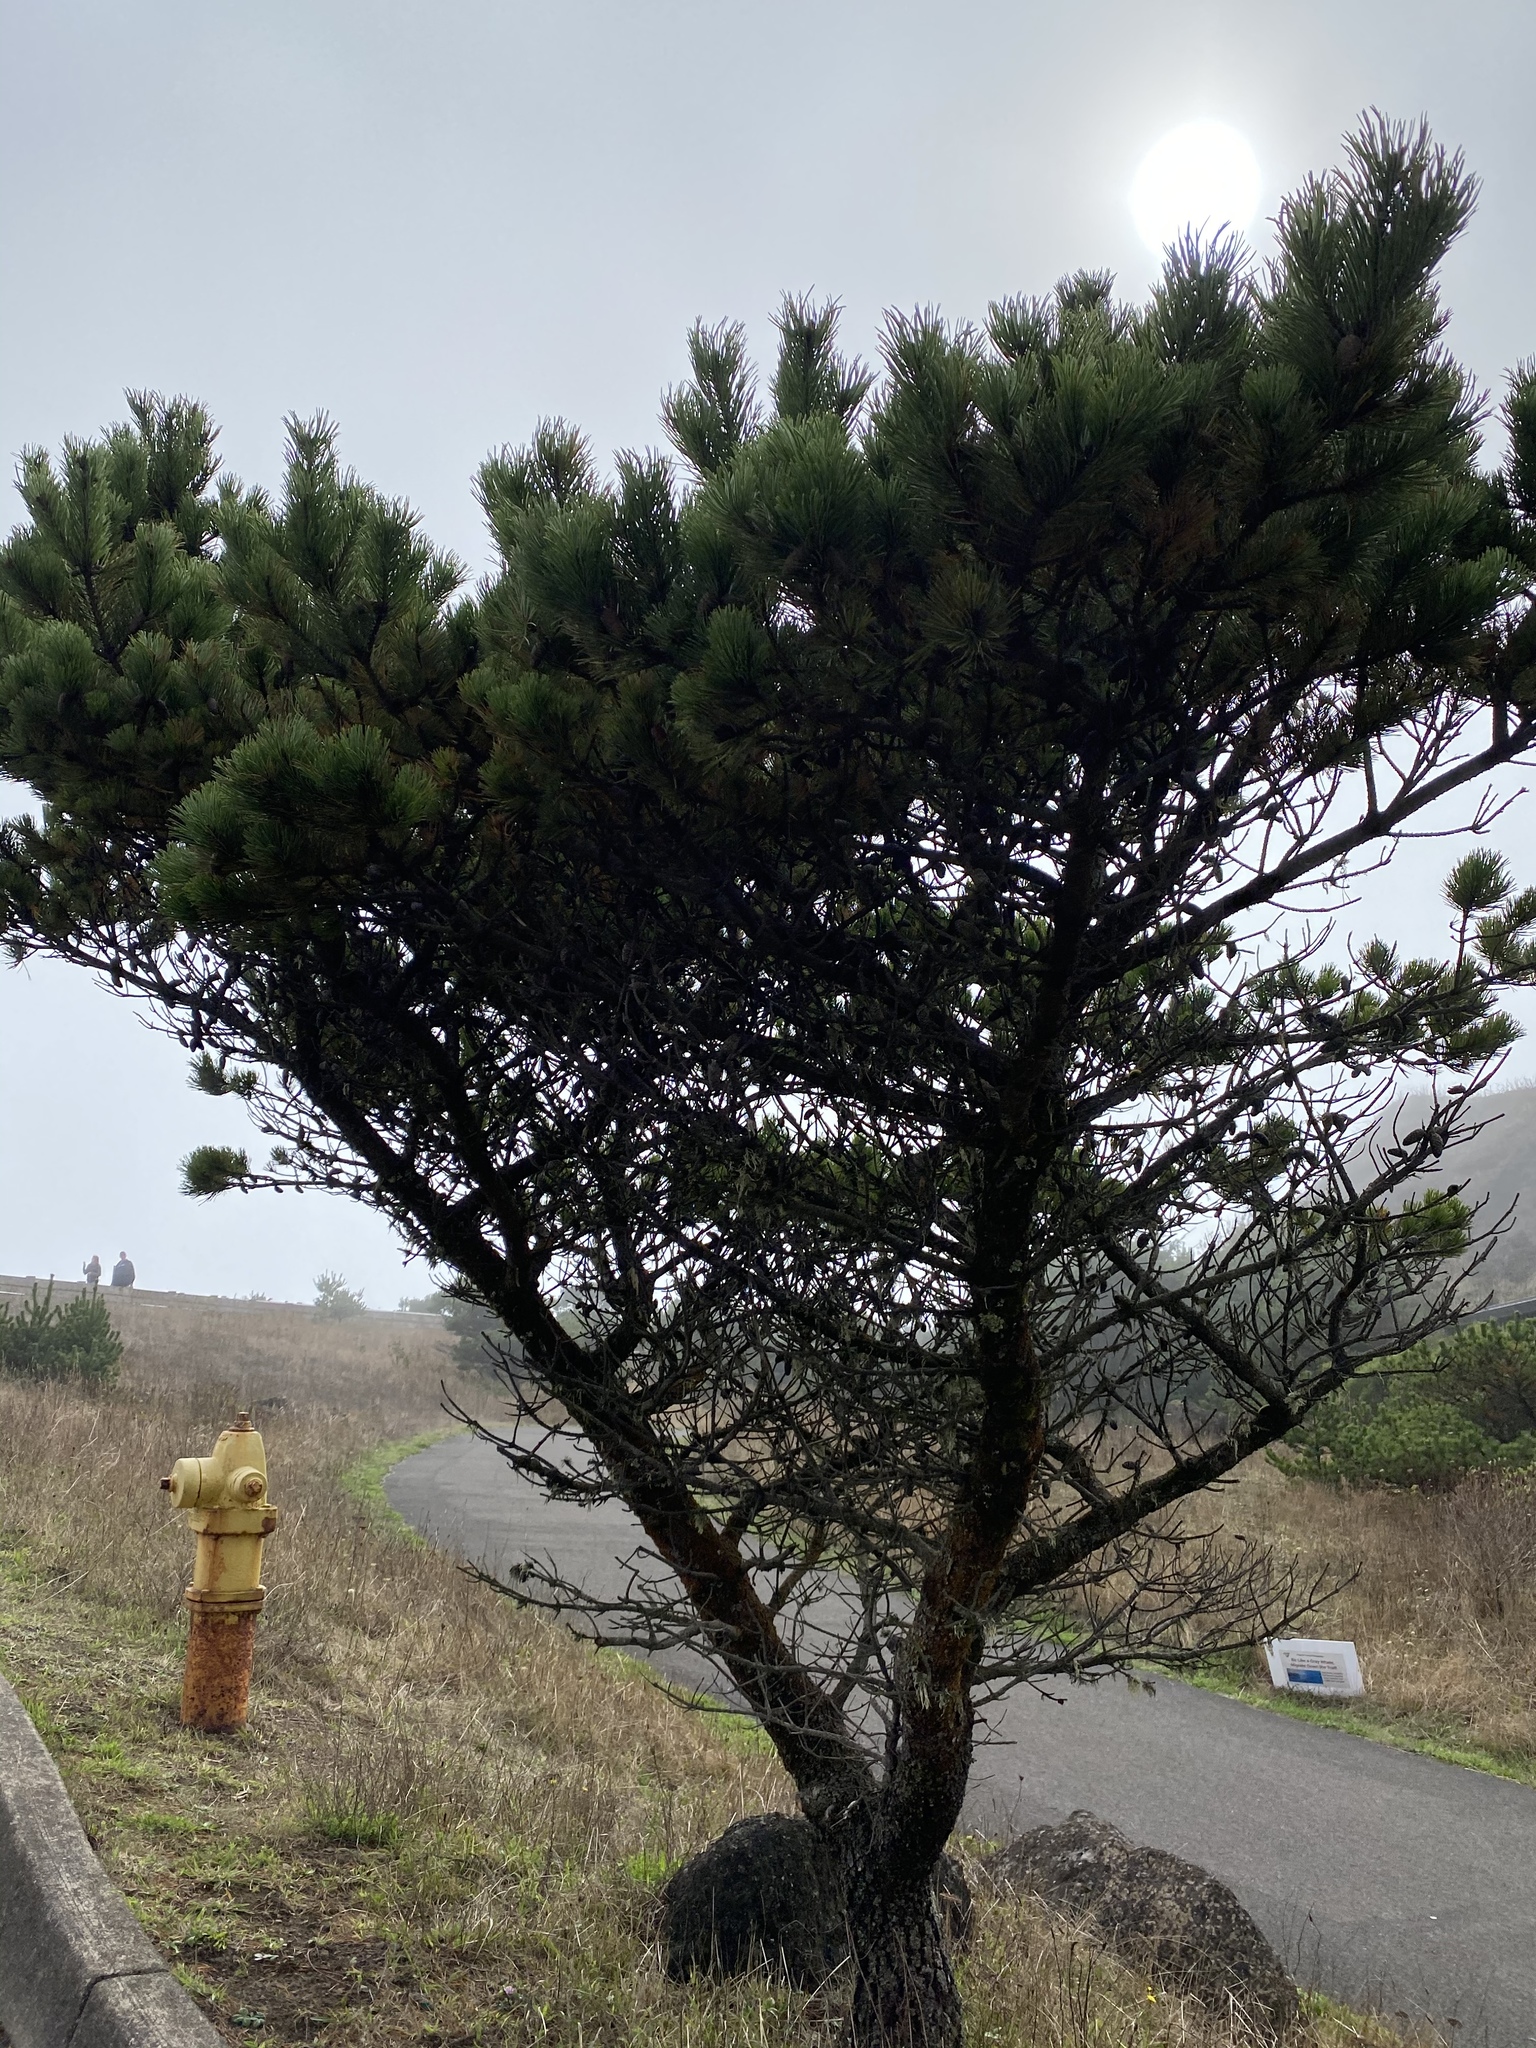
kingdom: Plantae
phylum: Tracheophyta
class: Pinopsida
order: Pinales
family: Pinaceae
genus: Pinus
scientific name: Pinus contorta
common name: Lodgepole pine
